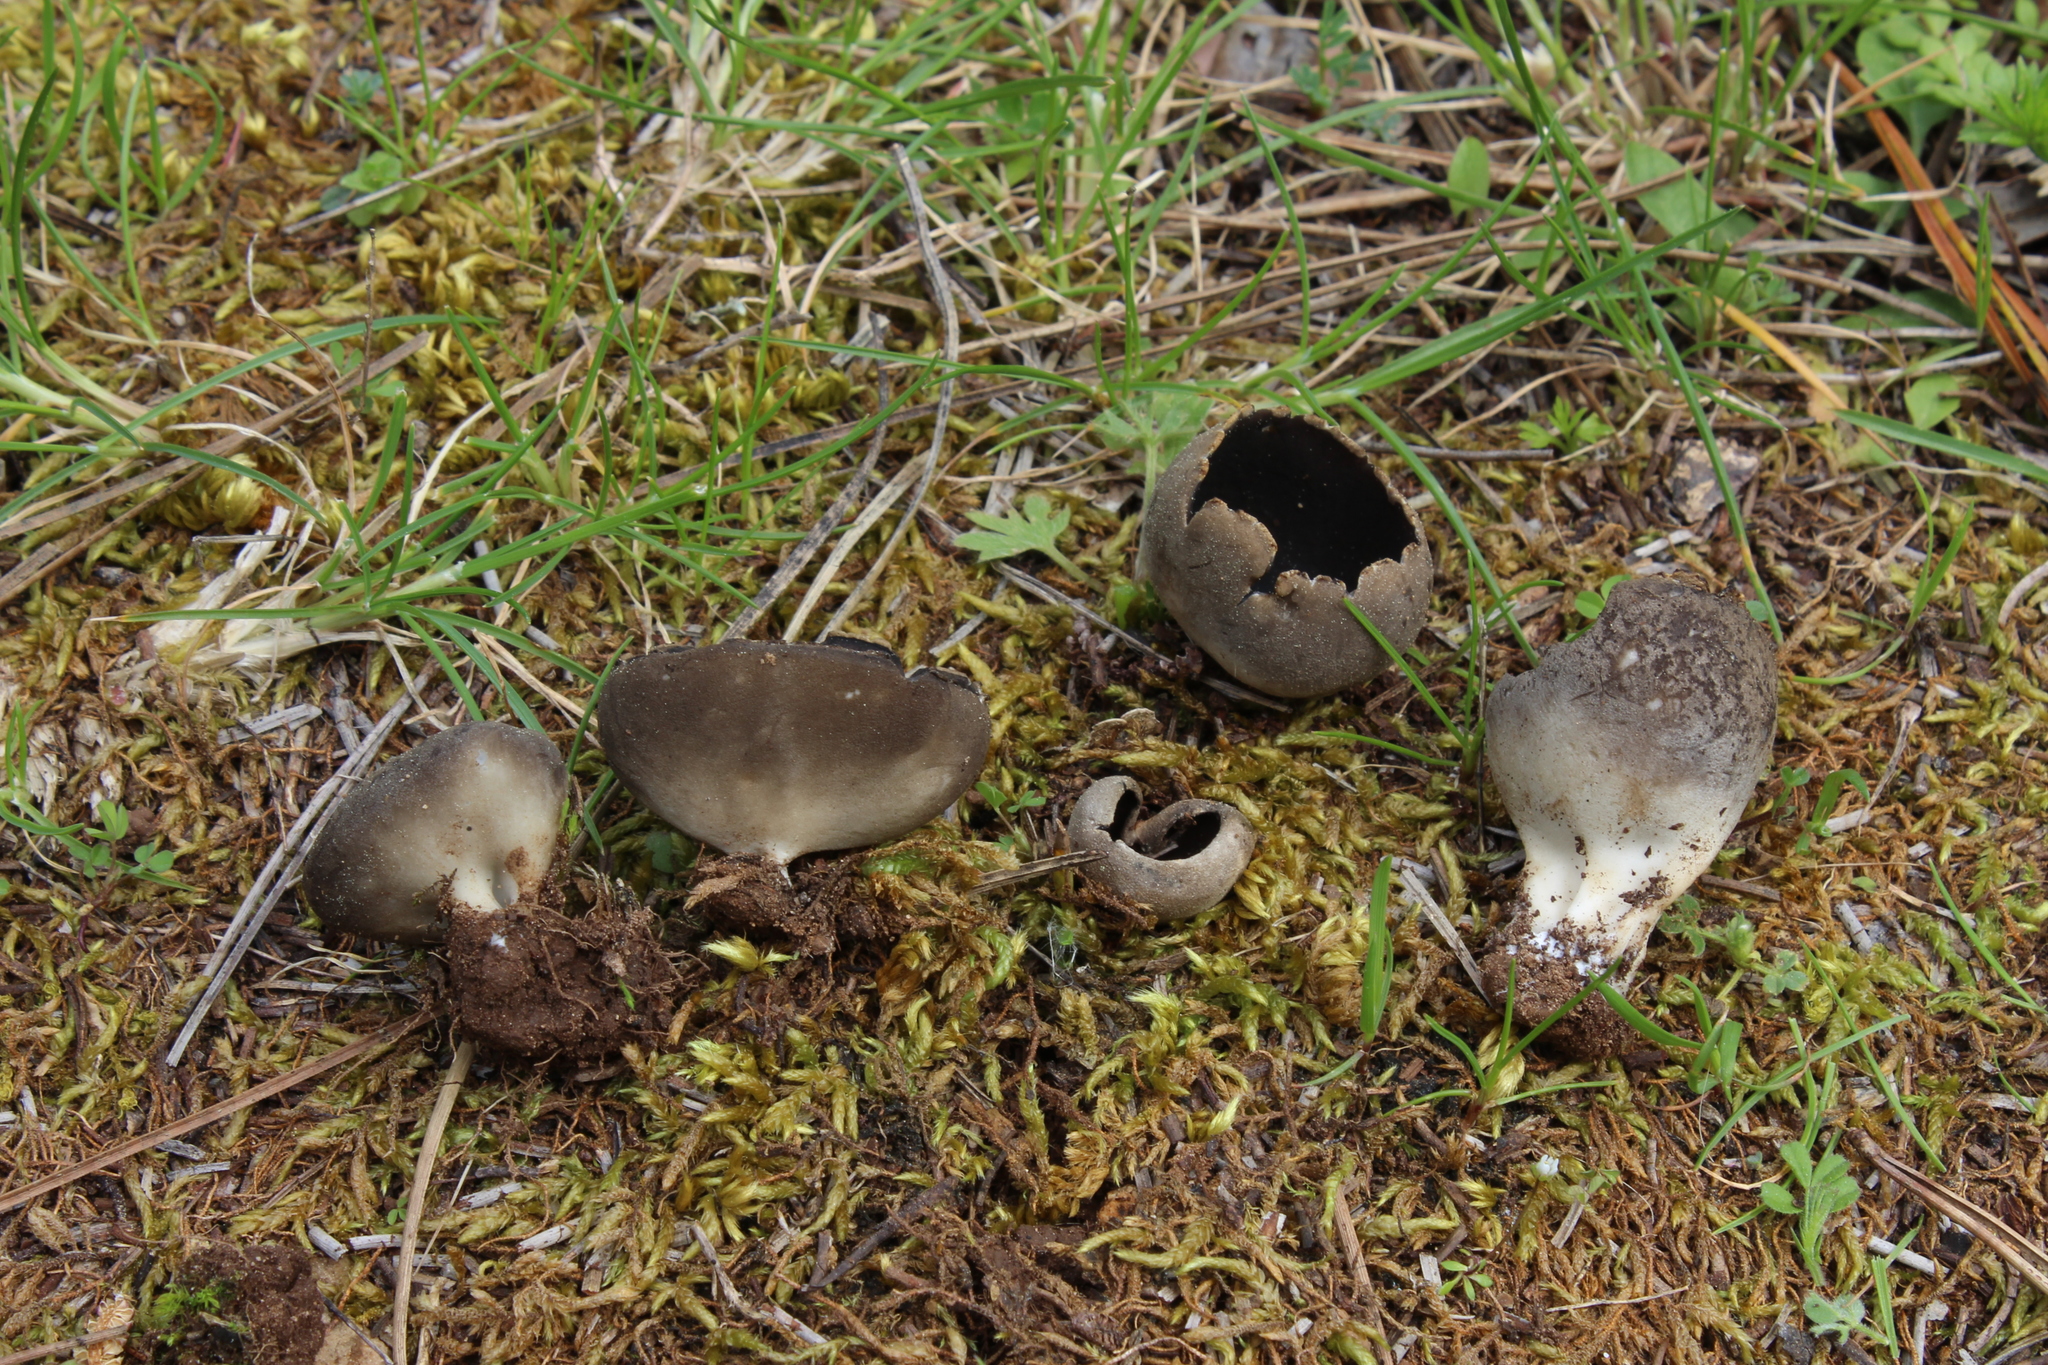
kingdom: Fungi
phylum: Ascomycota
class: Pezizomycetes
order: Pezizales
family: Helvellaceae
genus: Dissingia
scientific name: Dissingia leucomelaena
